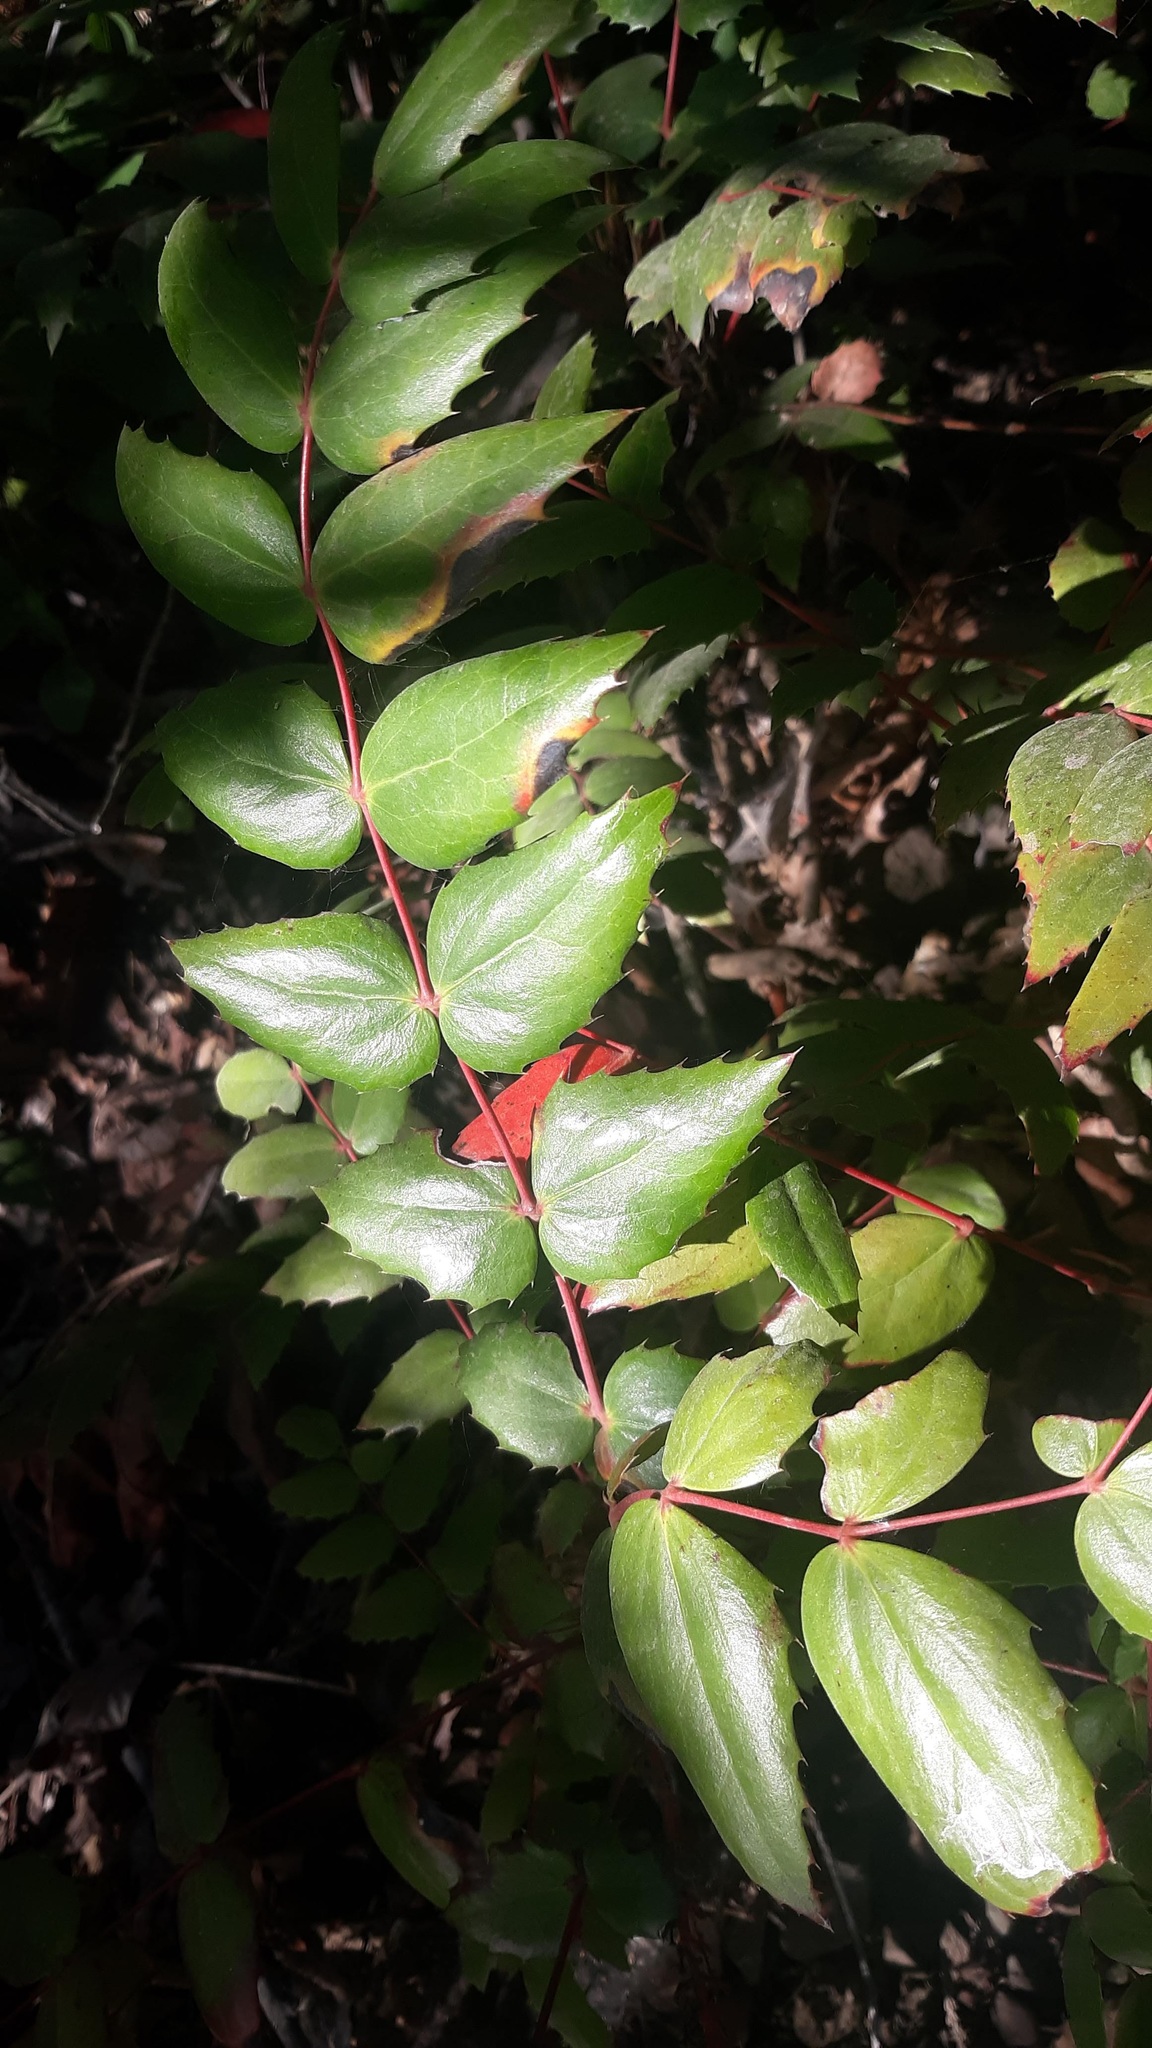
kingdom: Plantae
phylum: Tracheophyta
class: Magnoliopsida
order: Ranunculales
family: Berberidaceae
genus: Mahonia
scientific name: Mahonia nervosa
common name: Cascade oregon-grape
